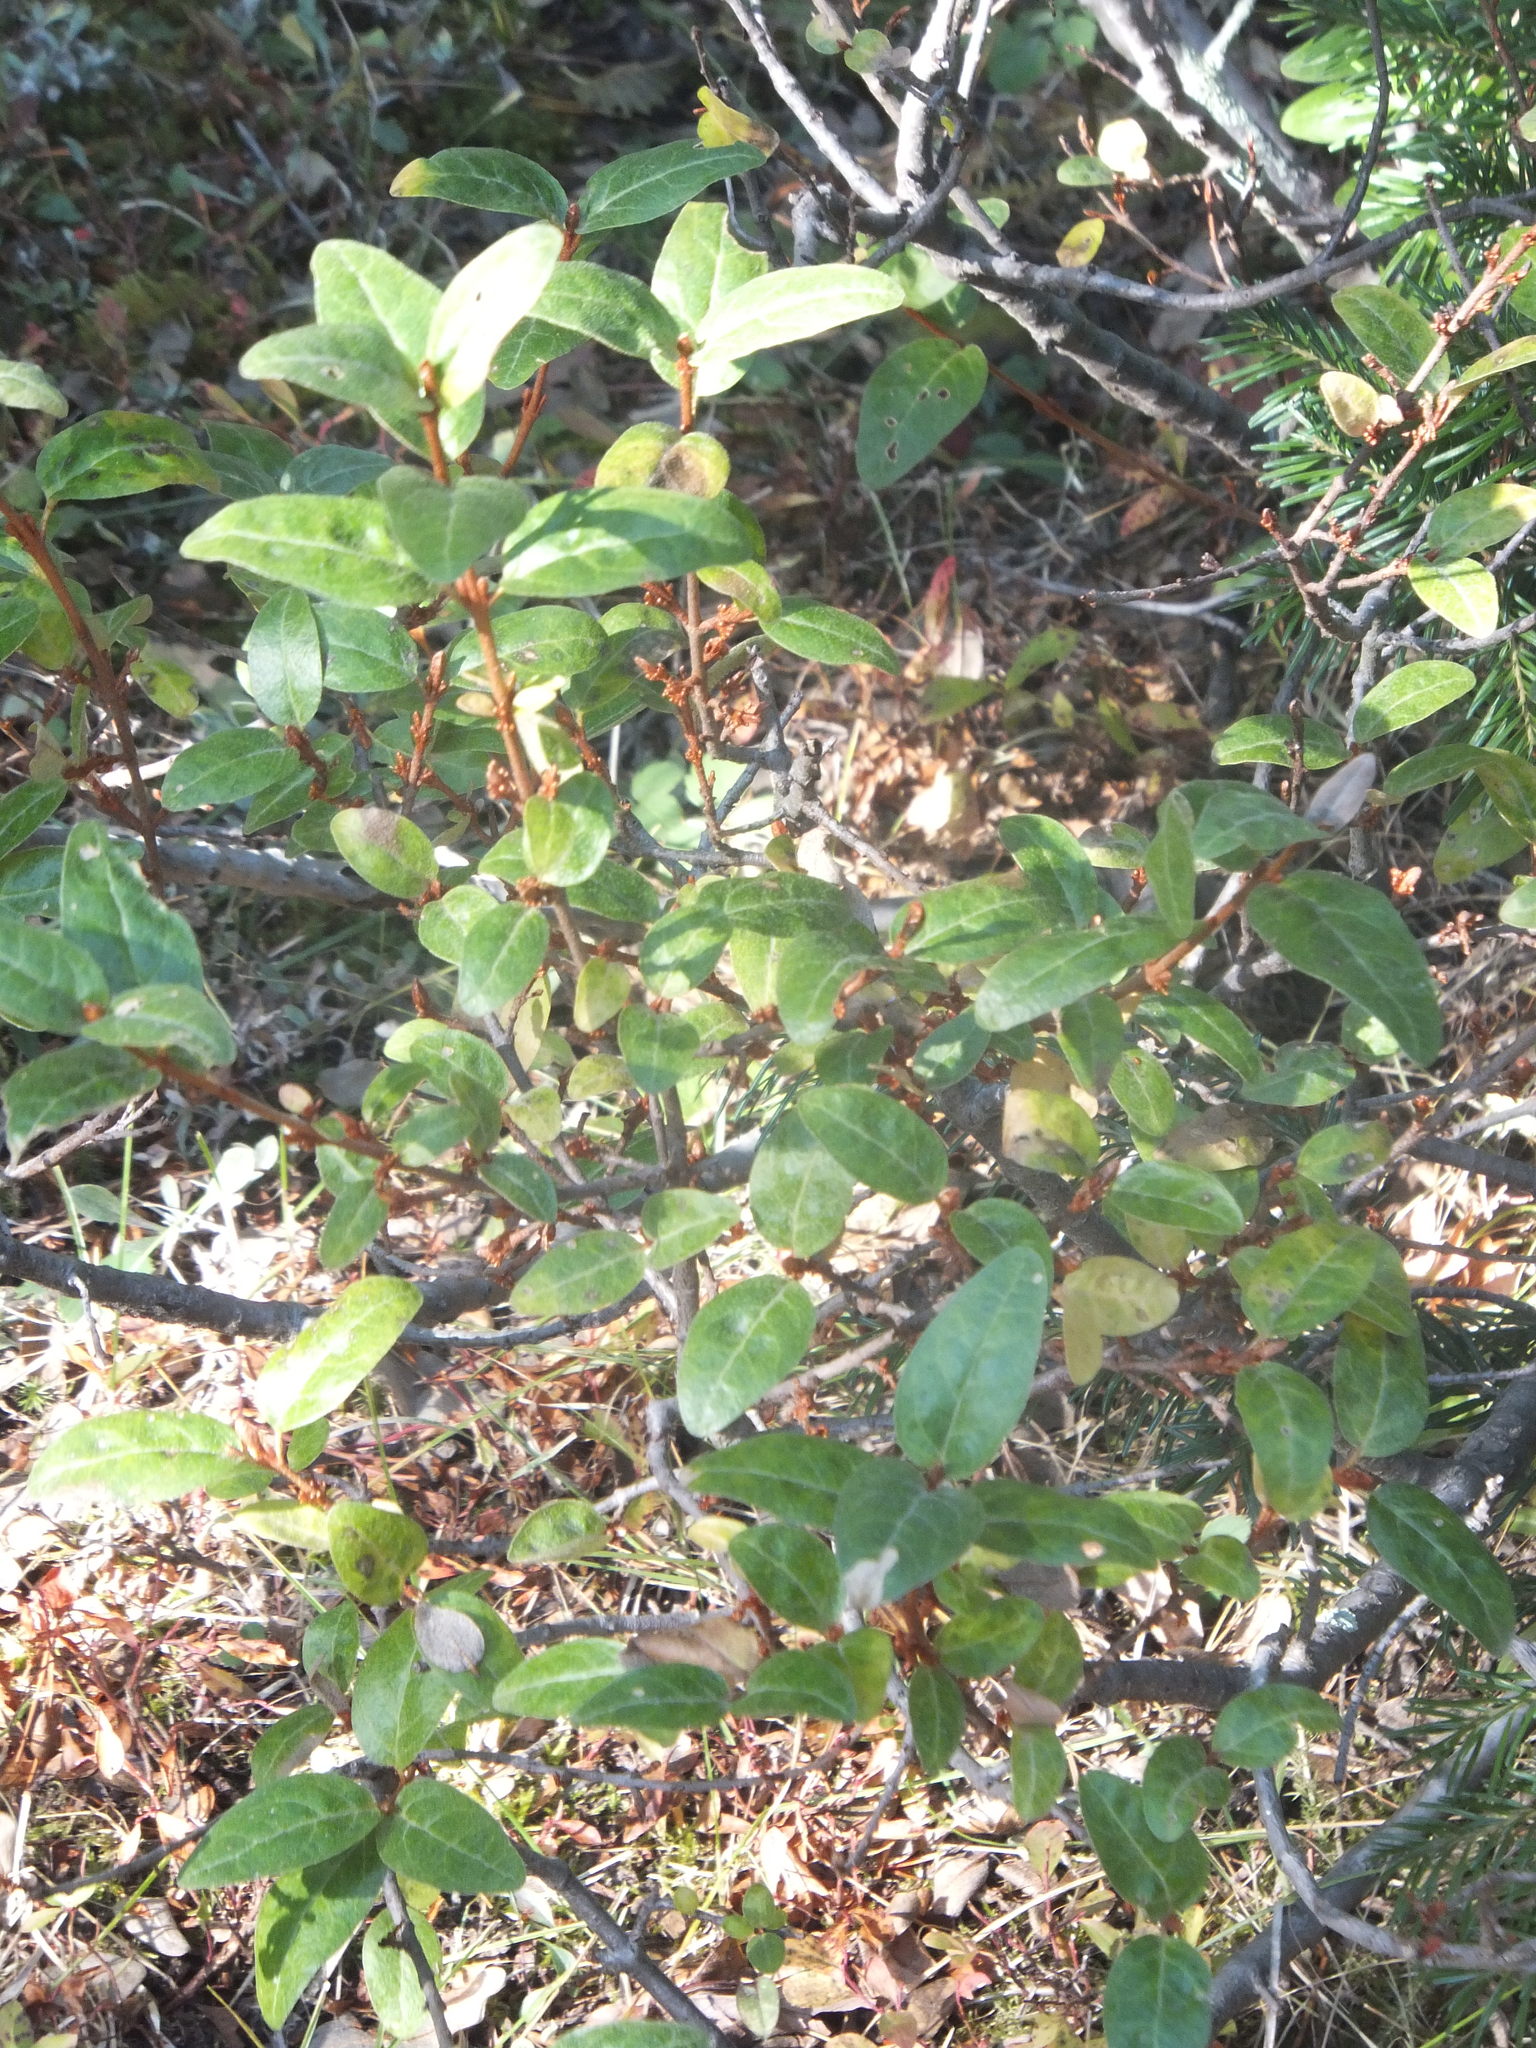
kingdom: Plantae
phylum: Tracheophyta
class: Magnoliopsida
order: Rosales
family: Elaeagnaceae
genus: Shepherdia
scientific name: Shepherdia canadensis
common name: Soapberry
